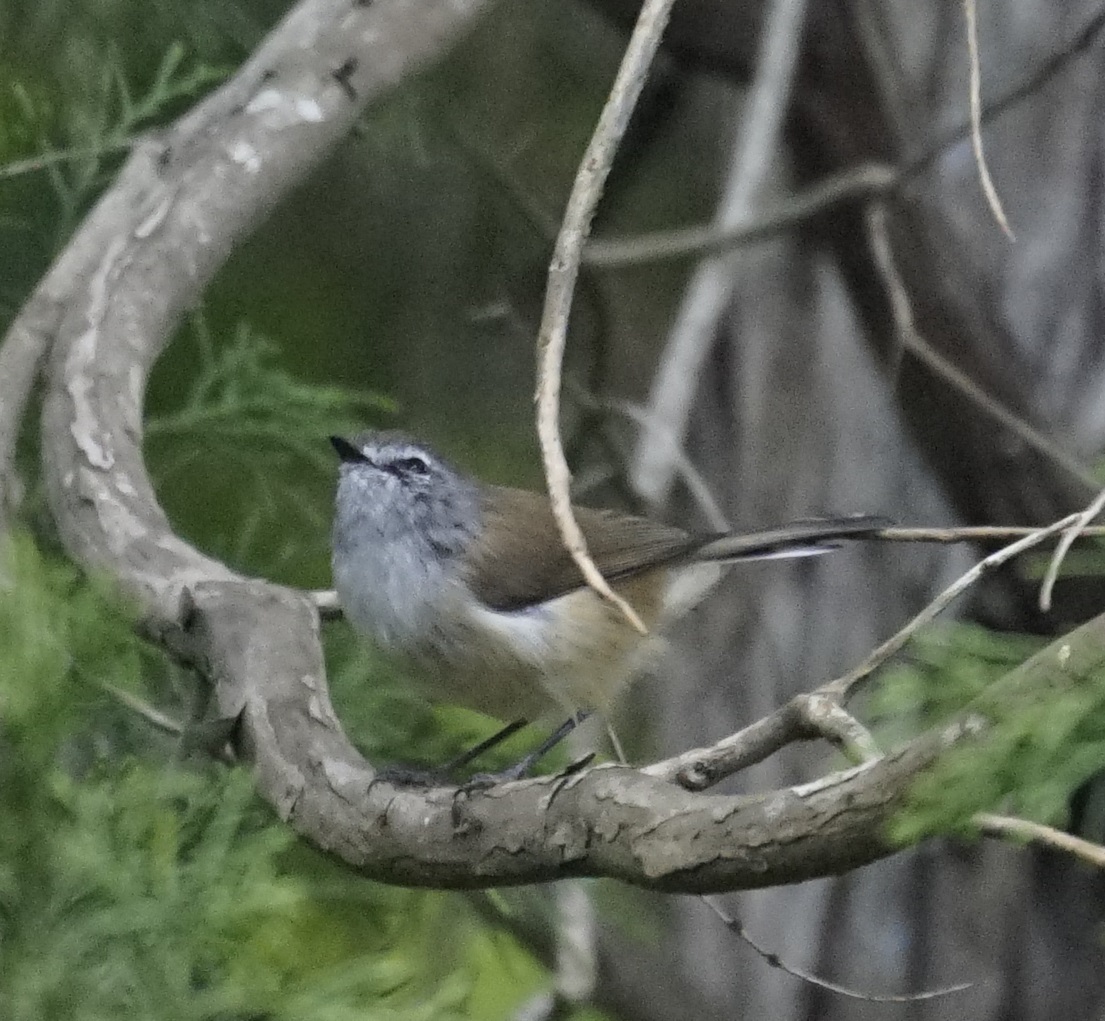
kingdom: Animalia
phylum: Chordata
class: Aves
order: Passeriformes
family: Acanthizidae
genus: Gerygone
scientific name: Gerygone mouki
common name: Brown gerygone
